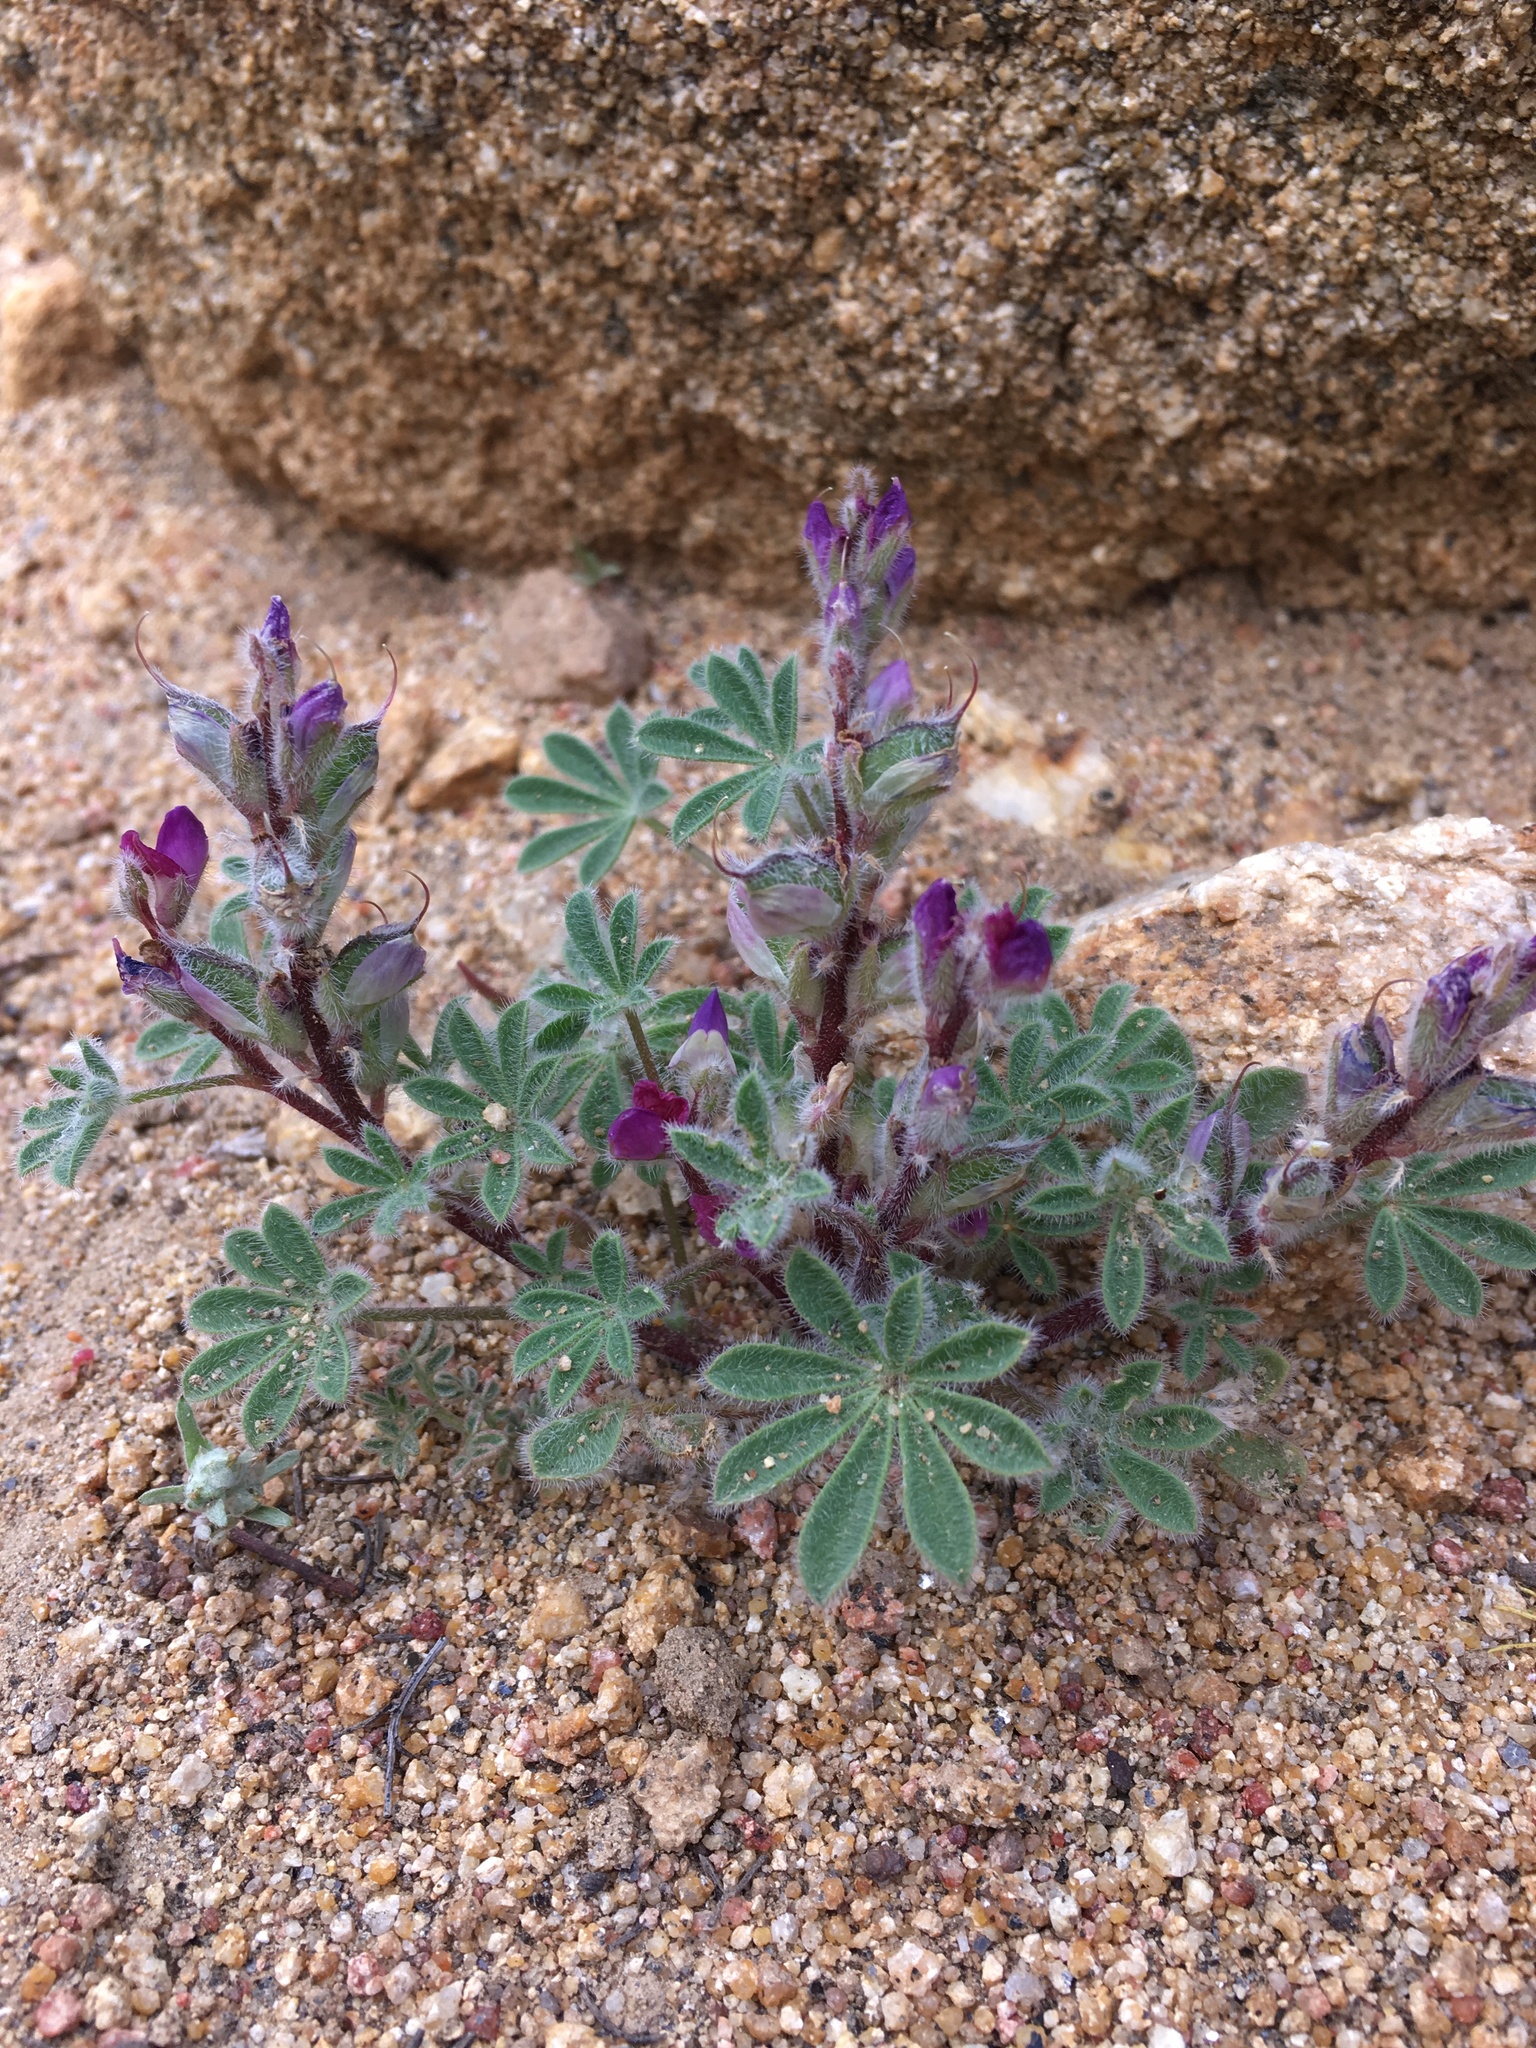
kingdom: Plantae
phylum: Tracheophyta
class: Magnoliopsida
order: Fabales
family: Fabaceae
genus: Lupinus
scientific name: Lupinus concinnus
